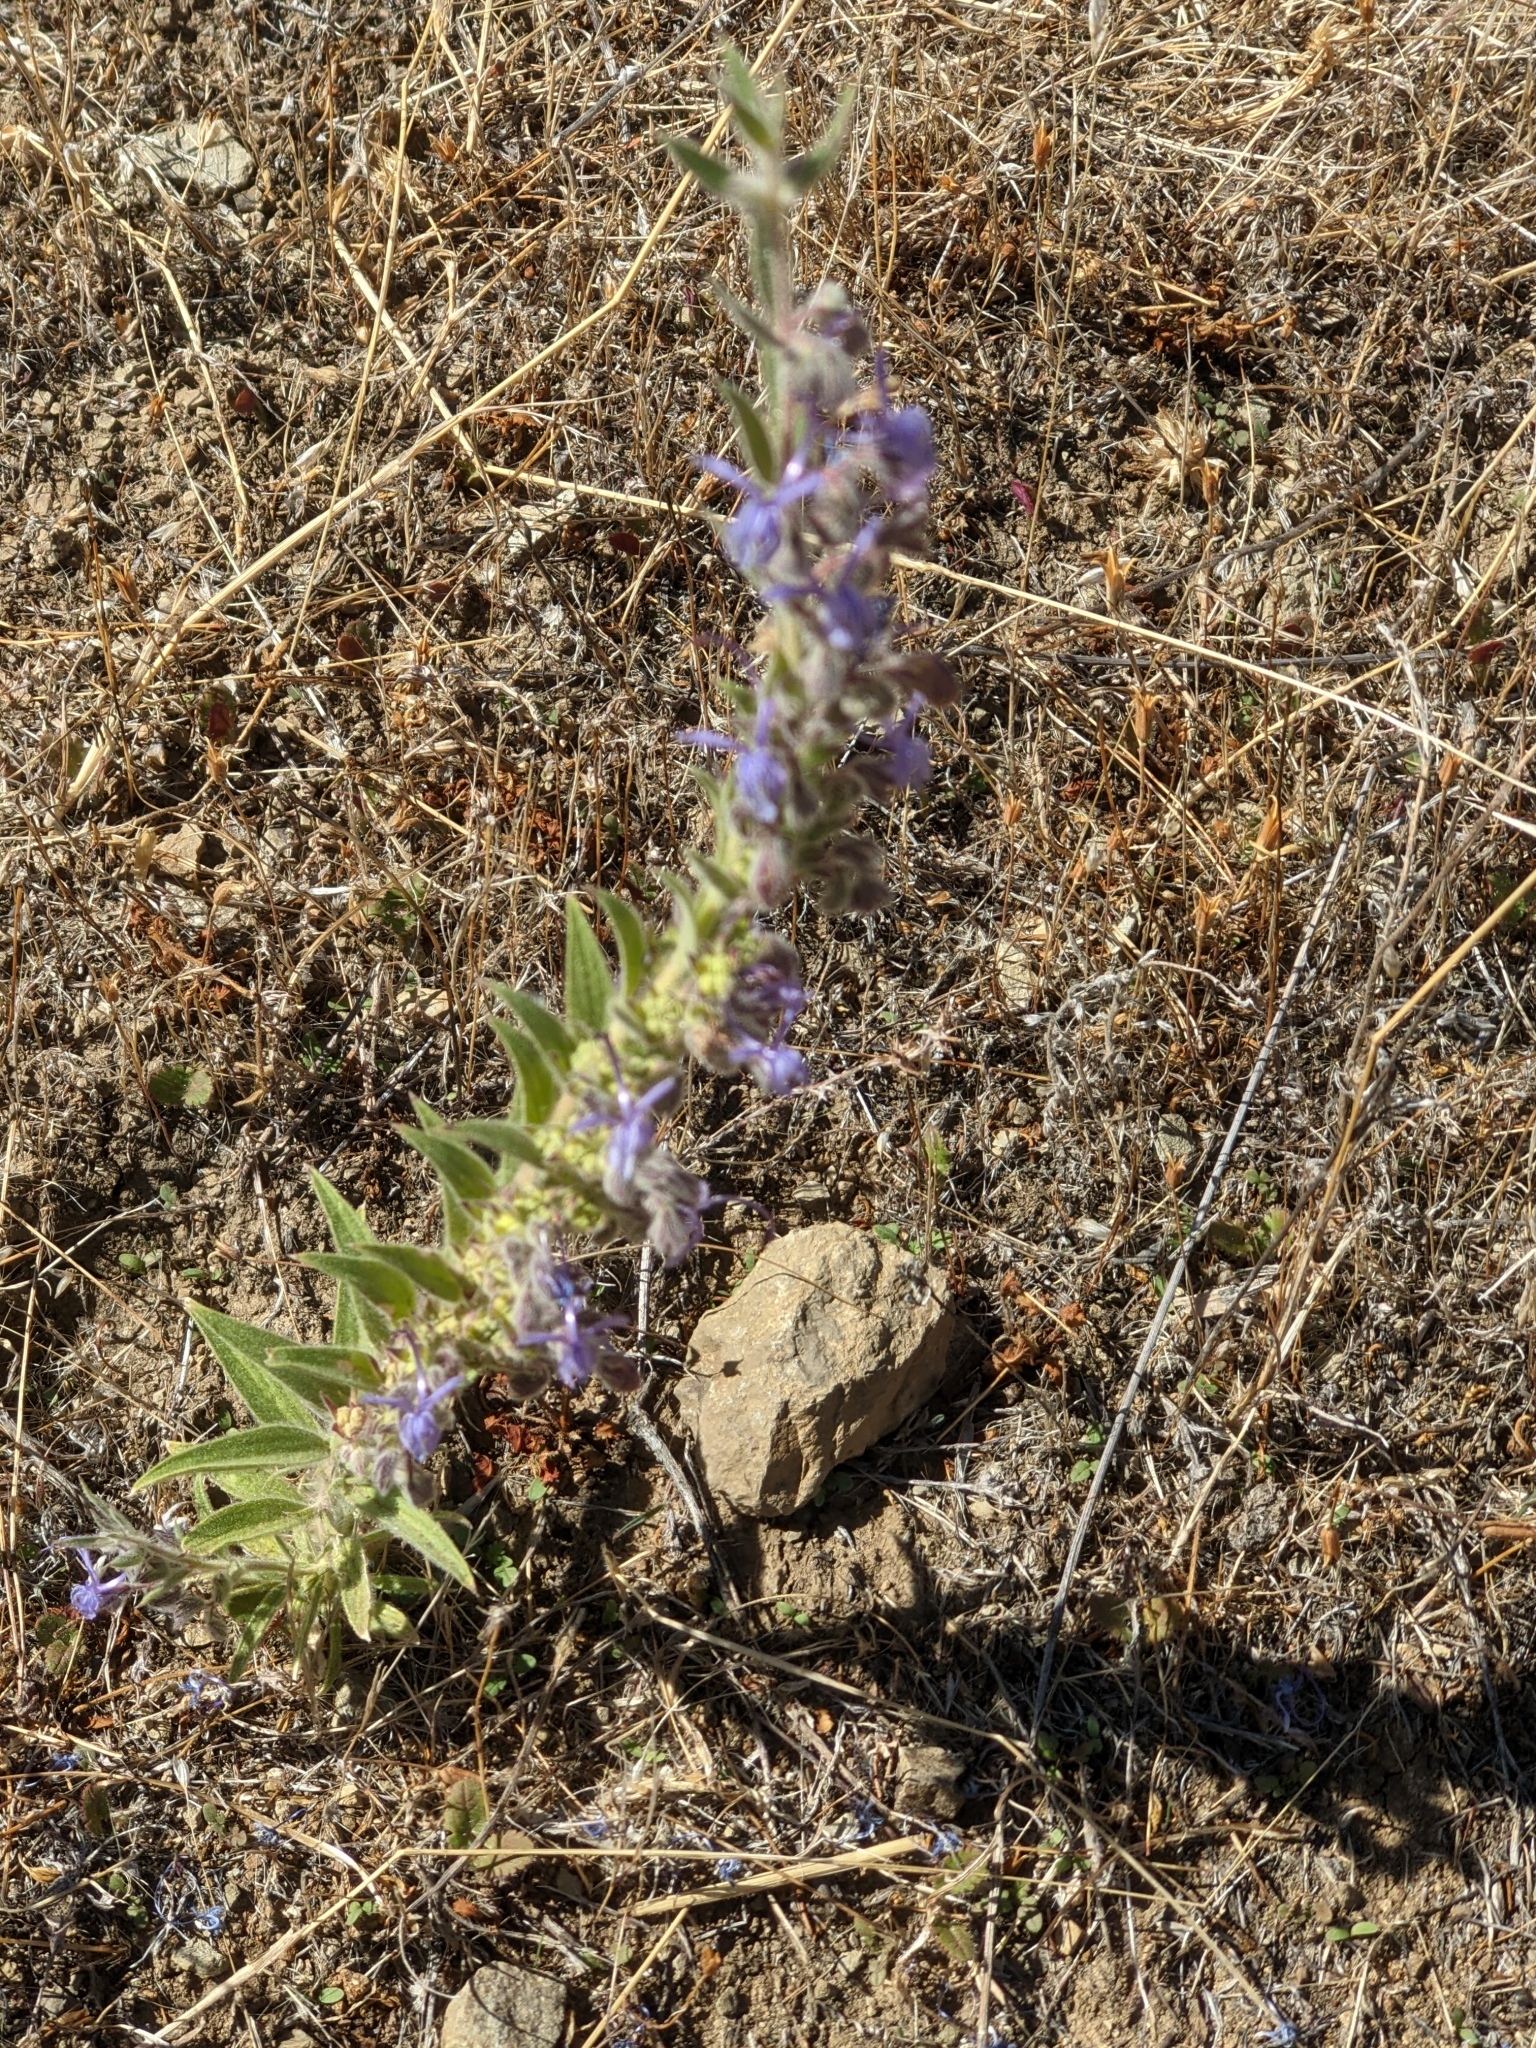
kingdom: Plantae
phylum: Tracheophyta
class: Magnoliopsida
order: Lamiales
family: Lamiaceae
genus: Trichostema
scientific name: Trichostema lanceolatum
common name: Vinegar-weed
